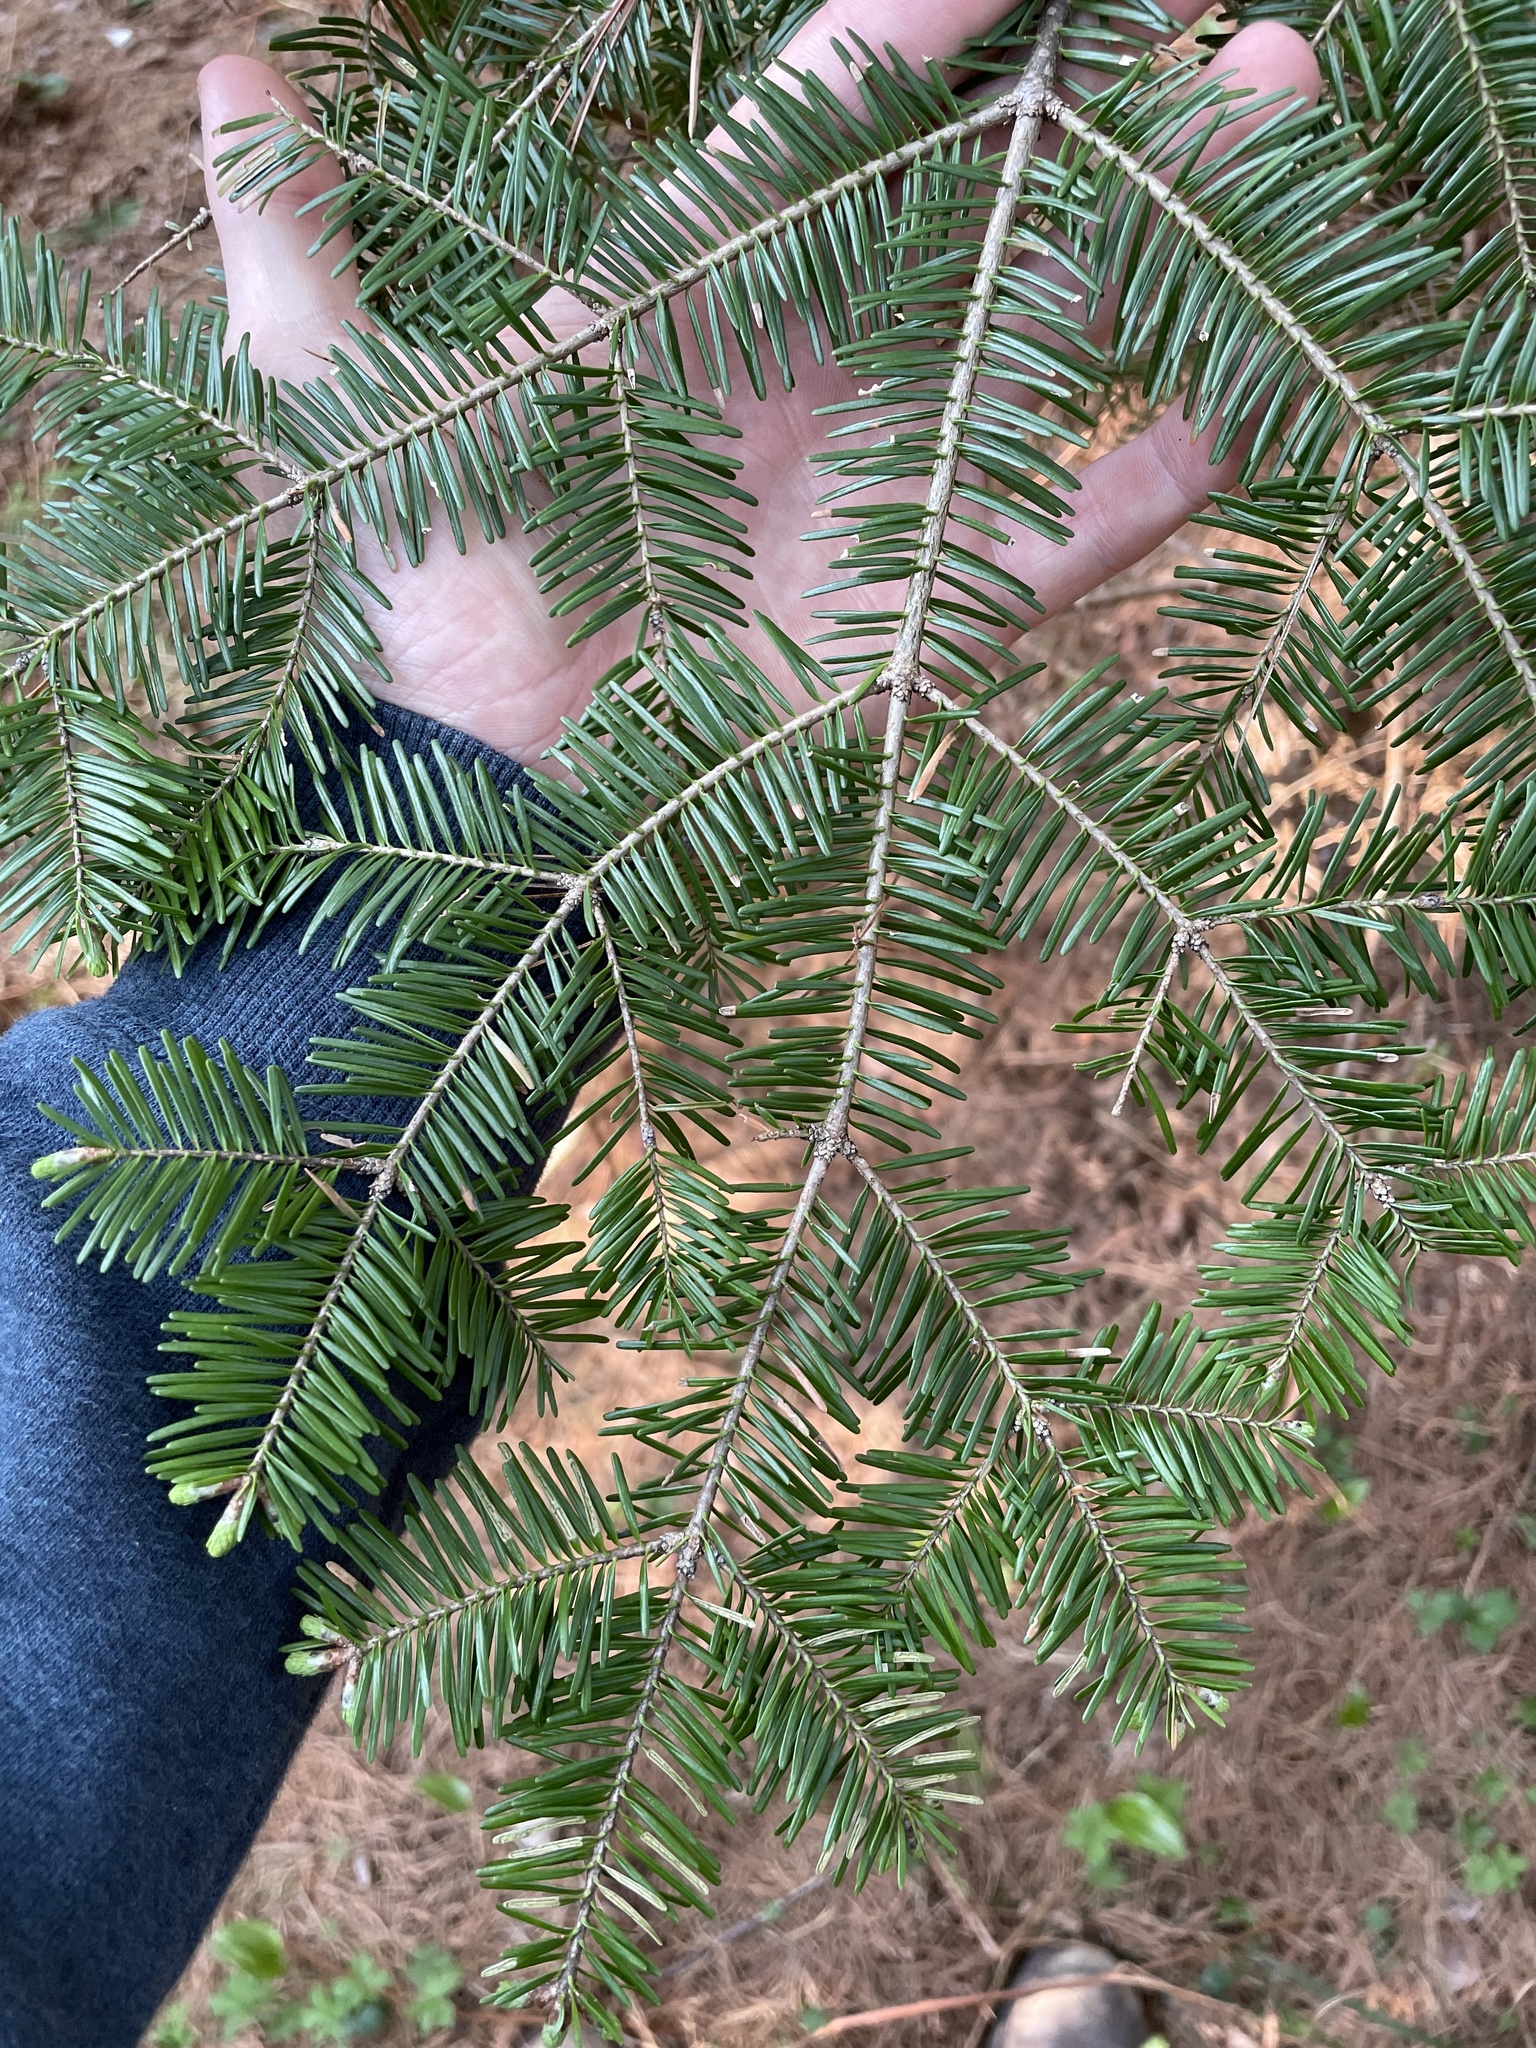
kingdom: Plantae
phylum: Tracheophyta
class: Pinopsida
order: Pinales
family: Pinaceae
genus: Abies
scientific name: Abies balsamea
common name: Balsam fir
